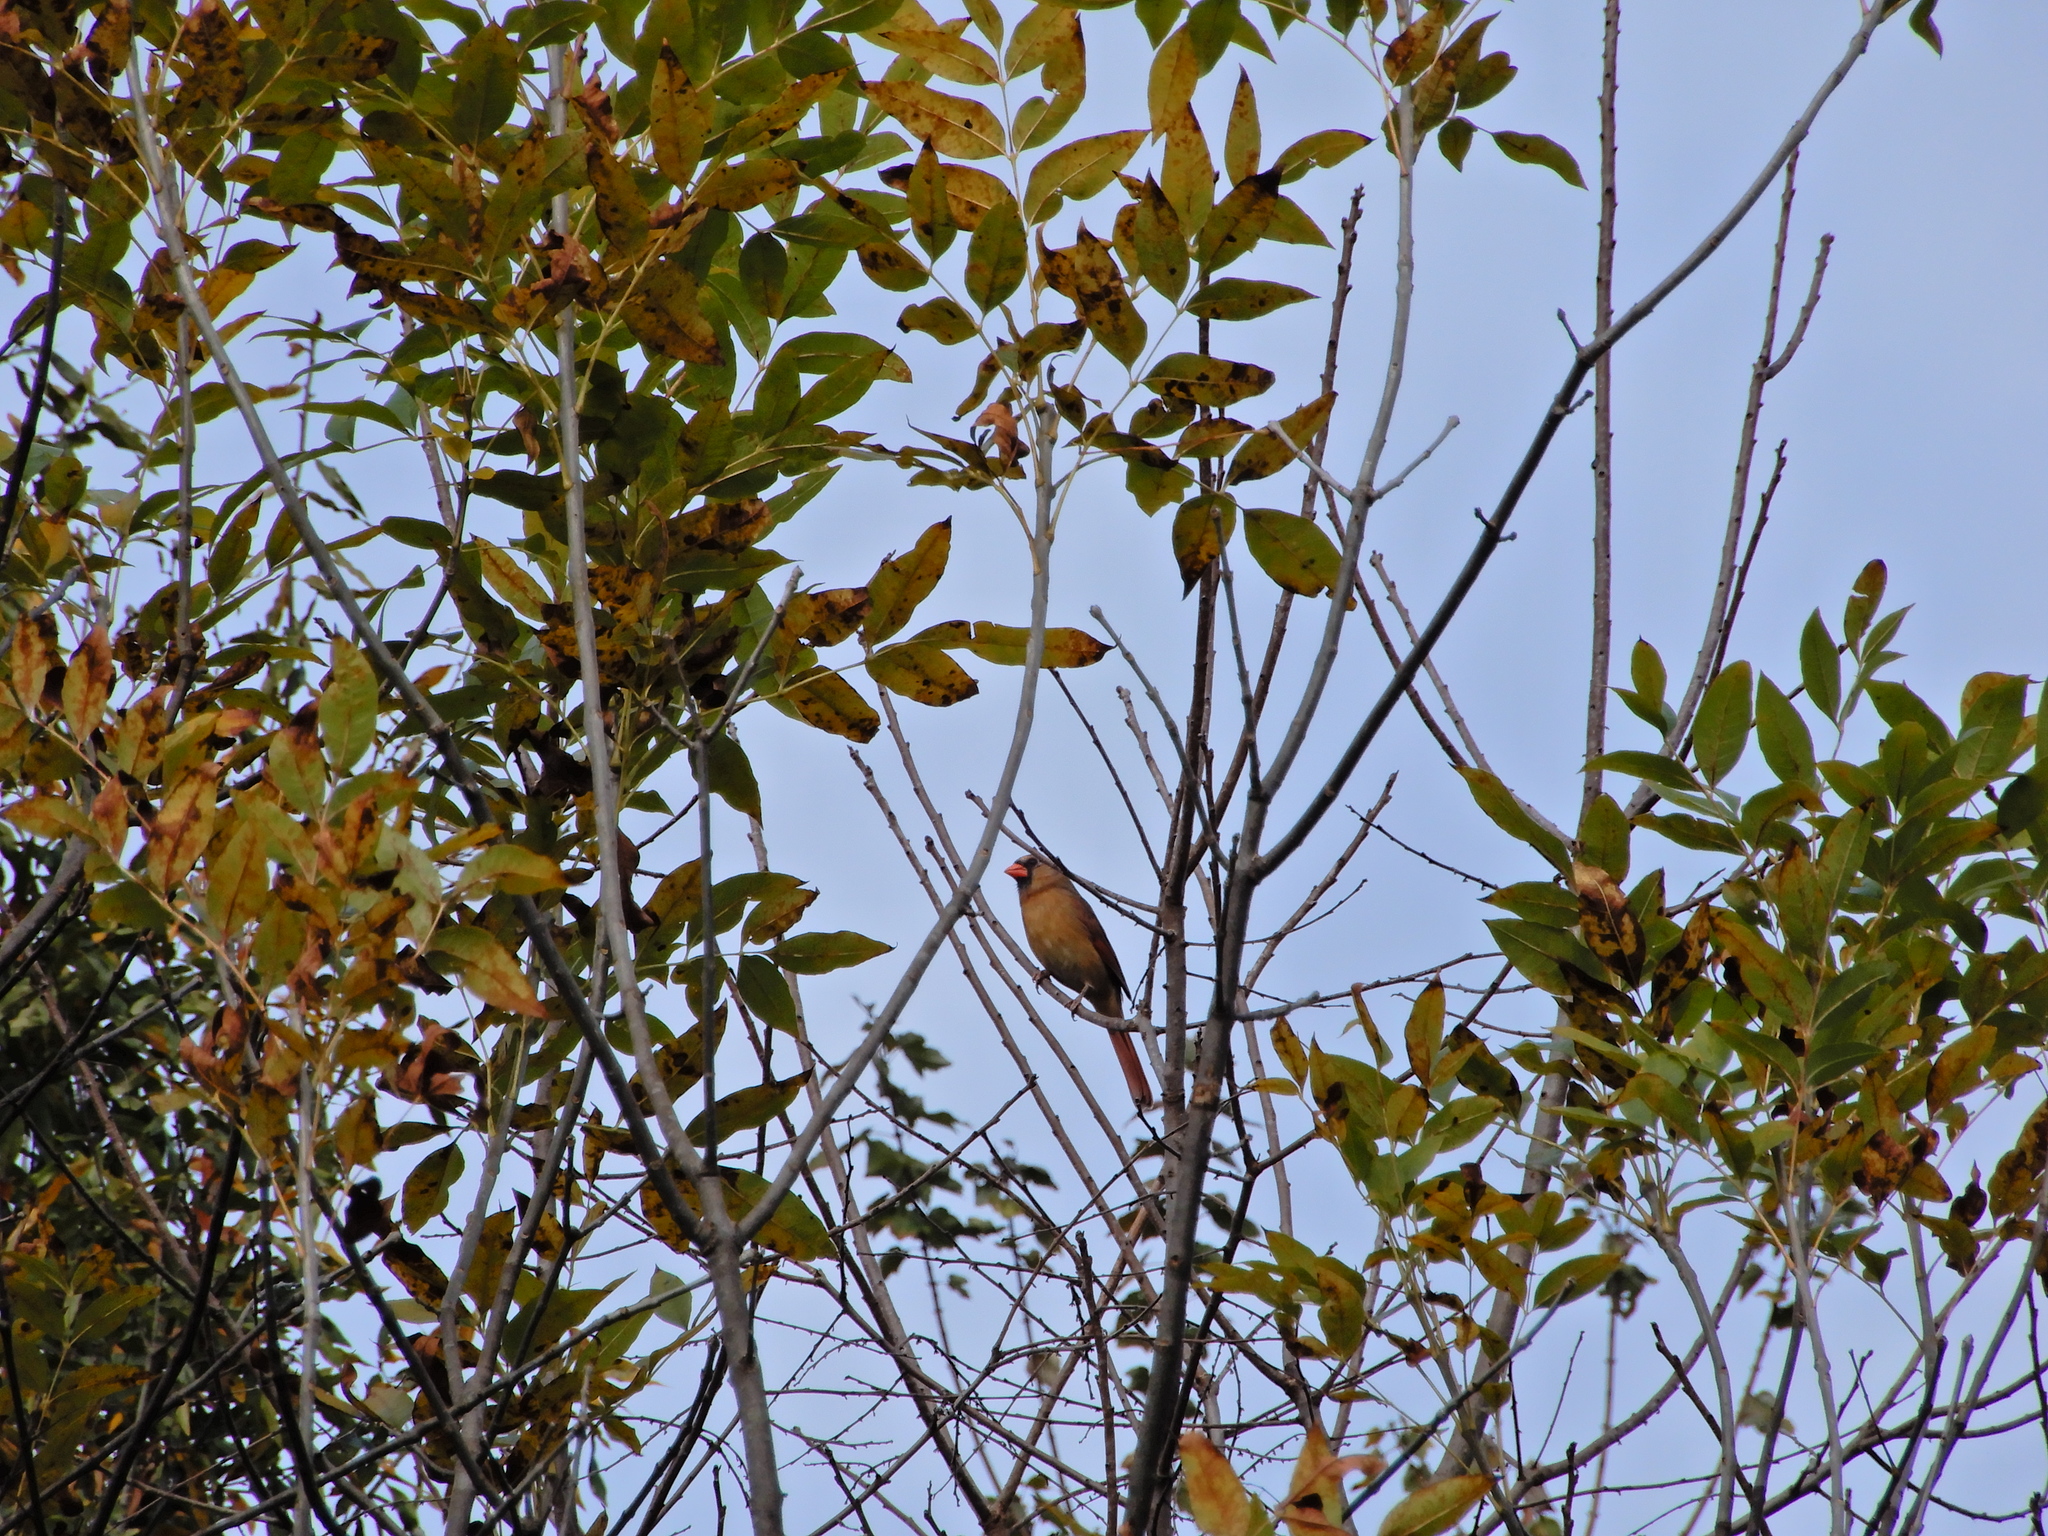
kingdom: Animalia
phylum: Chordata
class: Aves
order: Passeriformes
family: Cardinalidae
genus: Cardinalis
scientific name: Cardinalis cardinalis
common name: Northern cardinal
